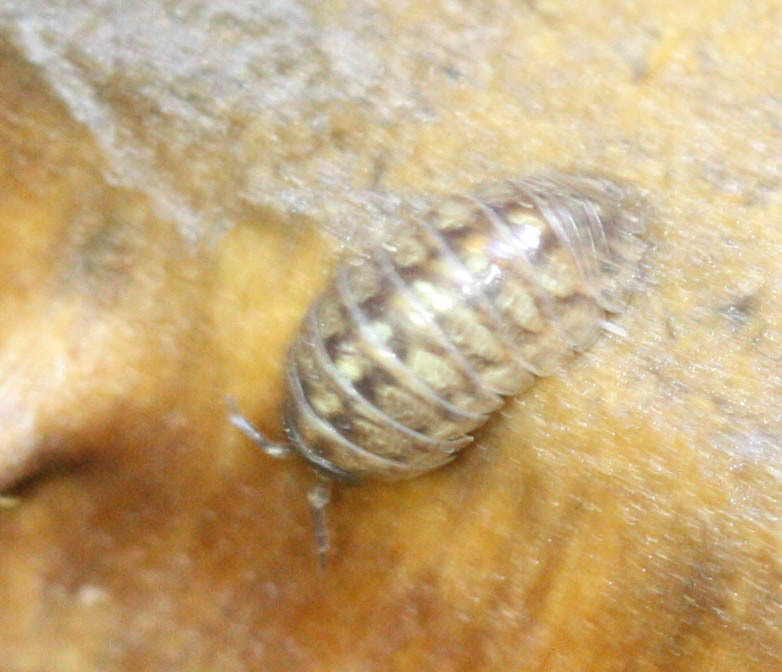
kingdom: Animalia
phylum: Arthropoda
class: Malacostraca
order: Isopoda
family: Armadillidiidae
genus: Armadillidium
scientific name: Armadillidium vulgare
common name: Common pill woodlouse
